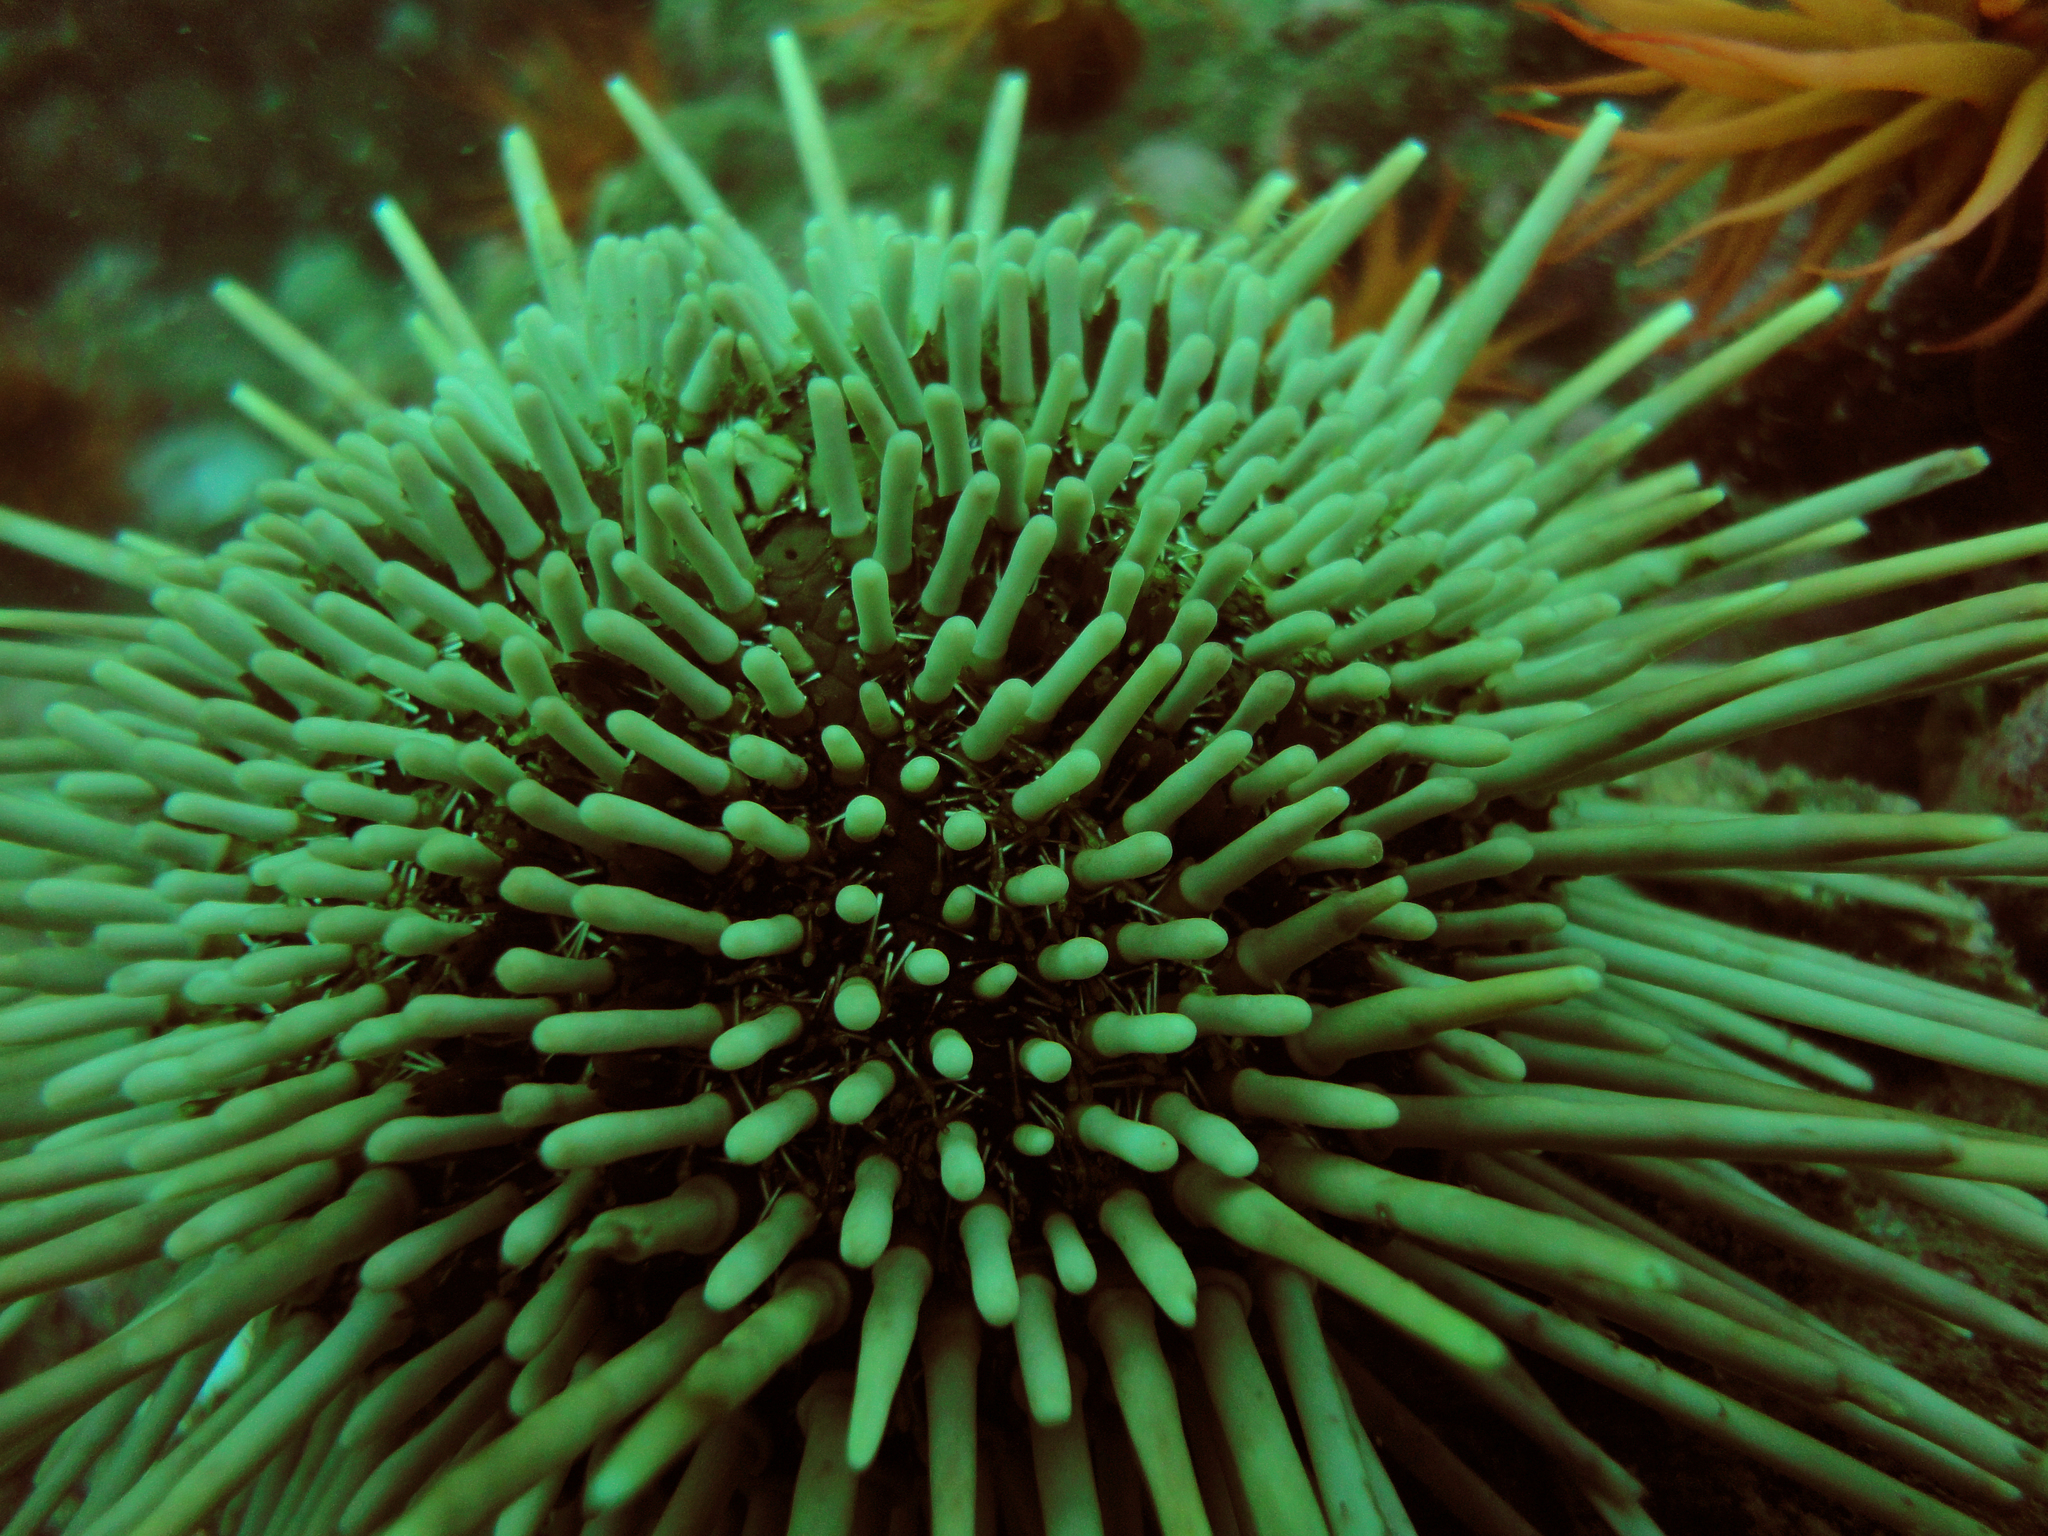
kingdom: Animalia
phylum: Echinodermata
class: Echinoidea
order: Arbacioida
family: Arbaciidae
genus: Arbacia
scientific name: Arbacia spatuligera
